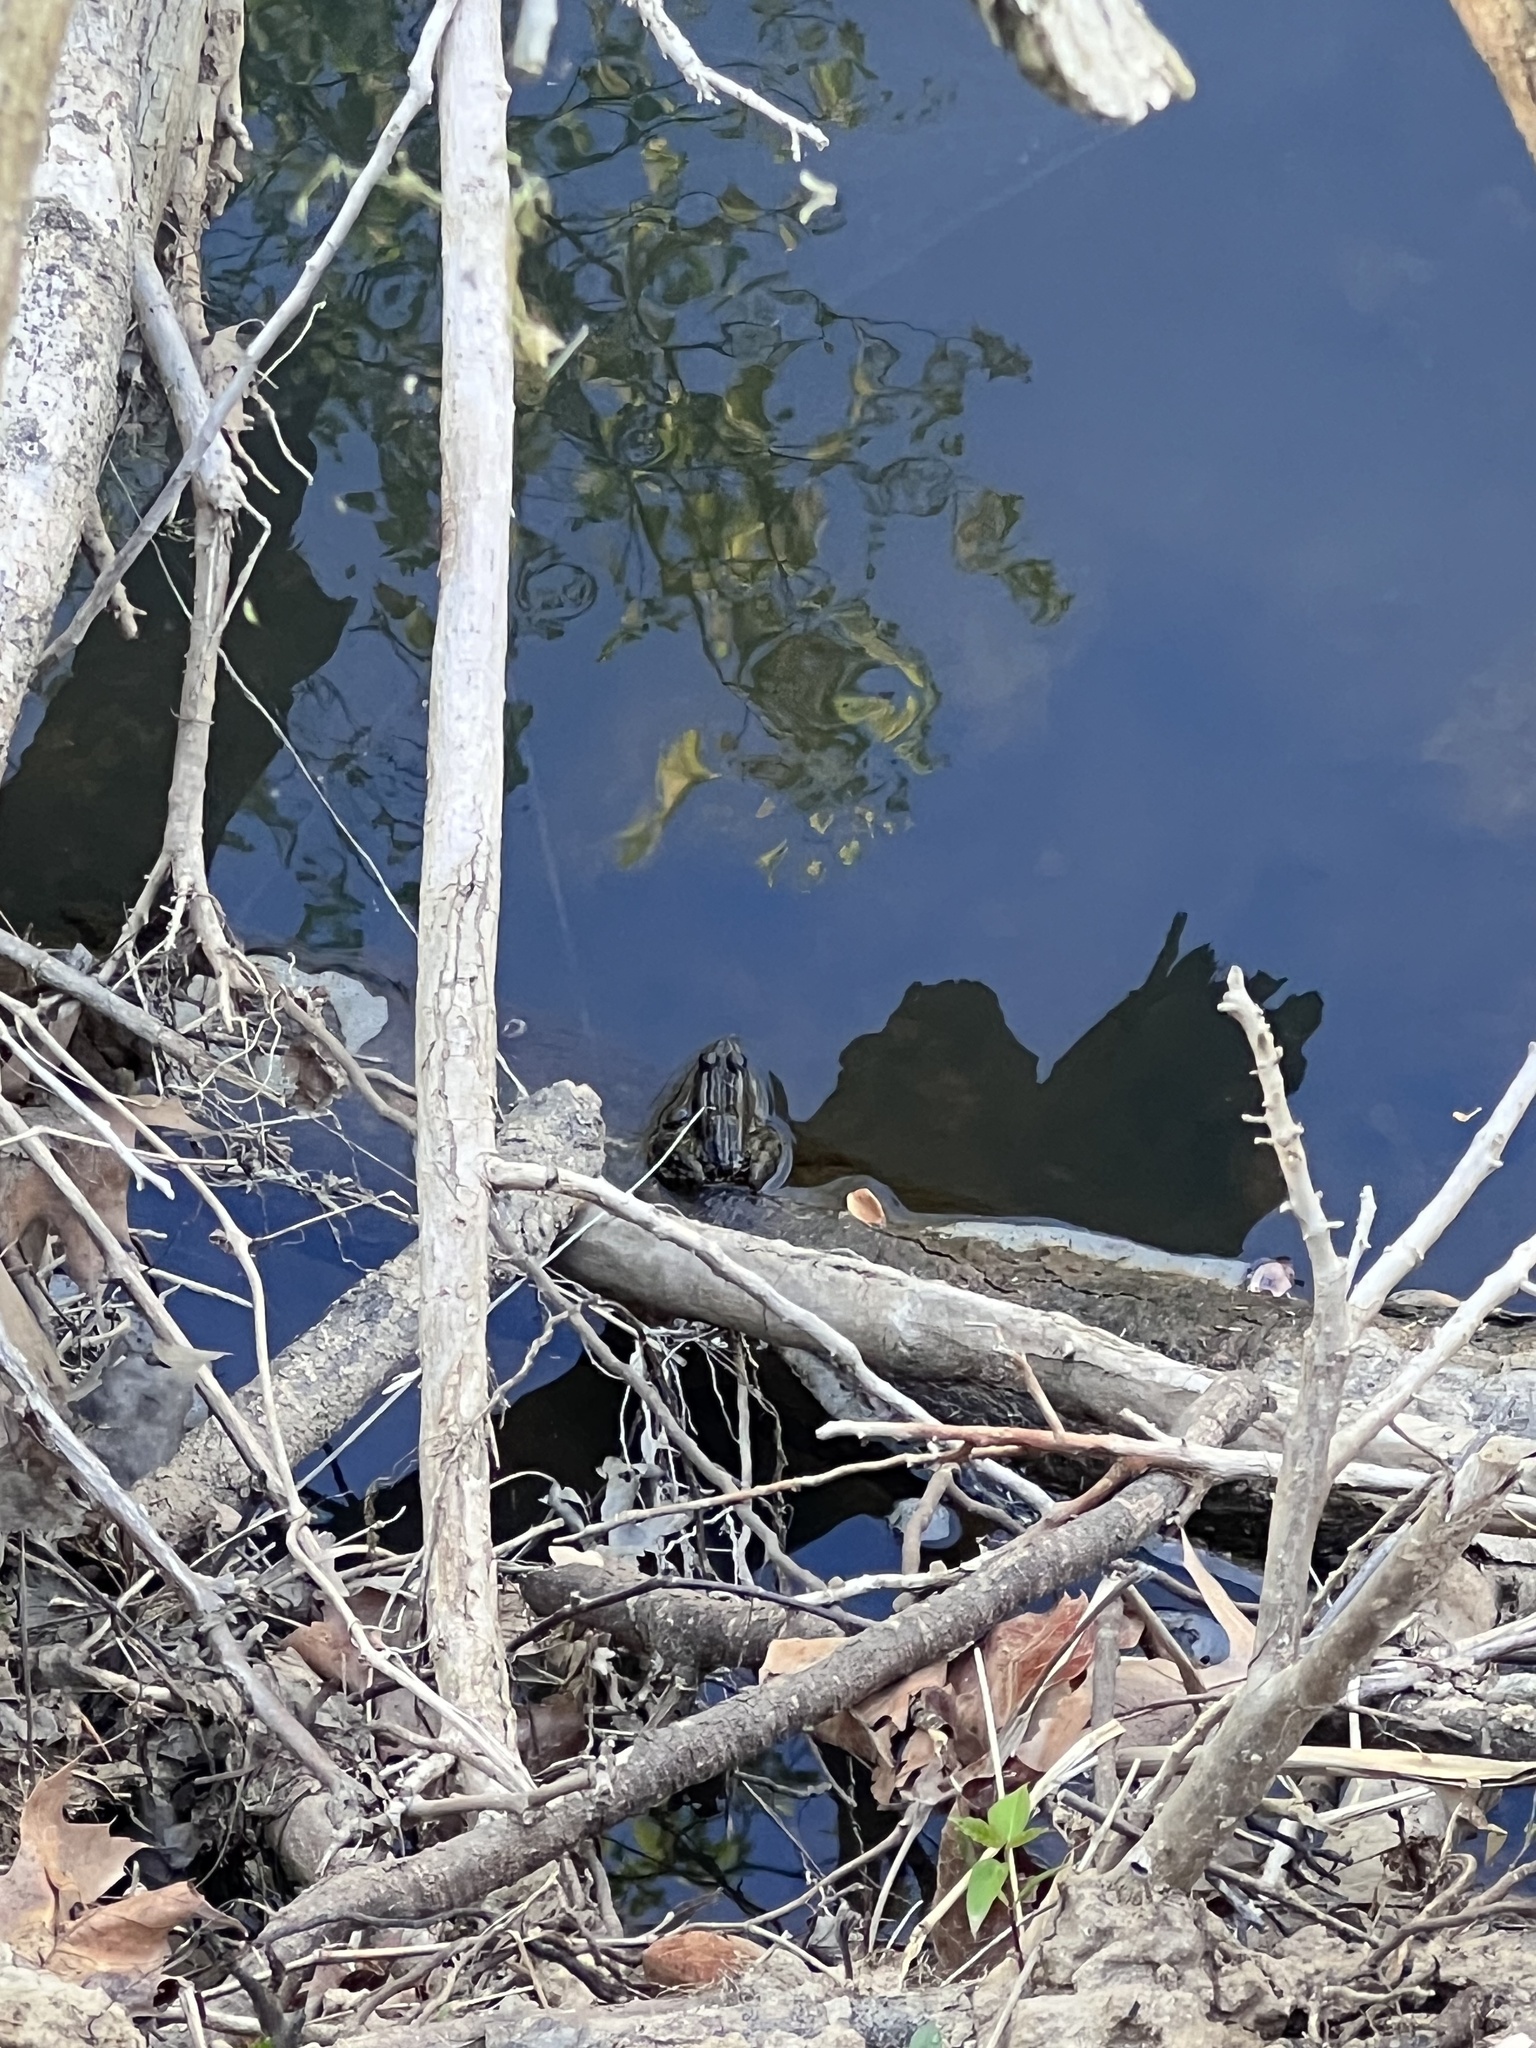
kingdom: Animalia
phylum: Chordata
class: Amphibia
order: Anura
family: Ranidae
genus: Lithobates
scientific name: Lithobates palustris
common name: Pickerel frog
